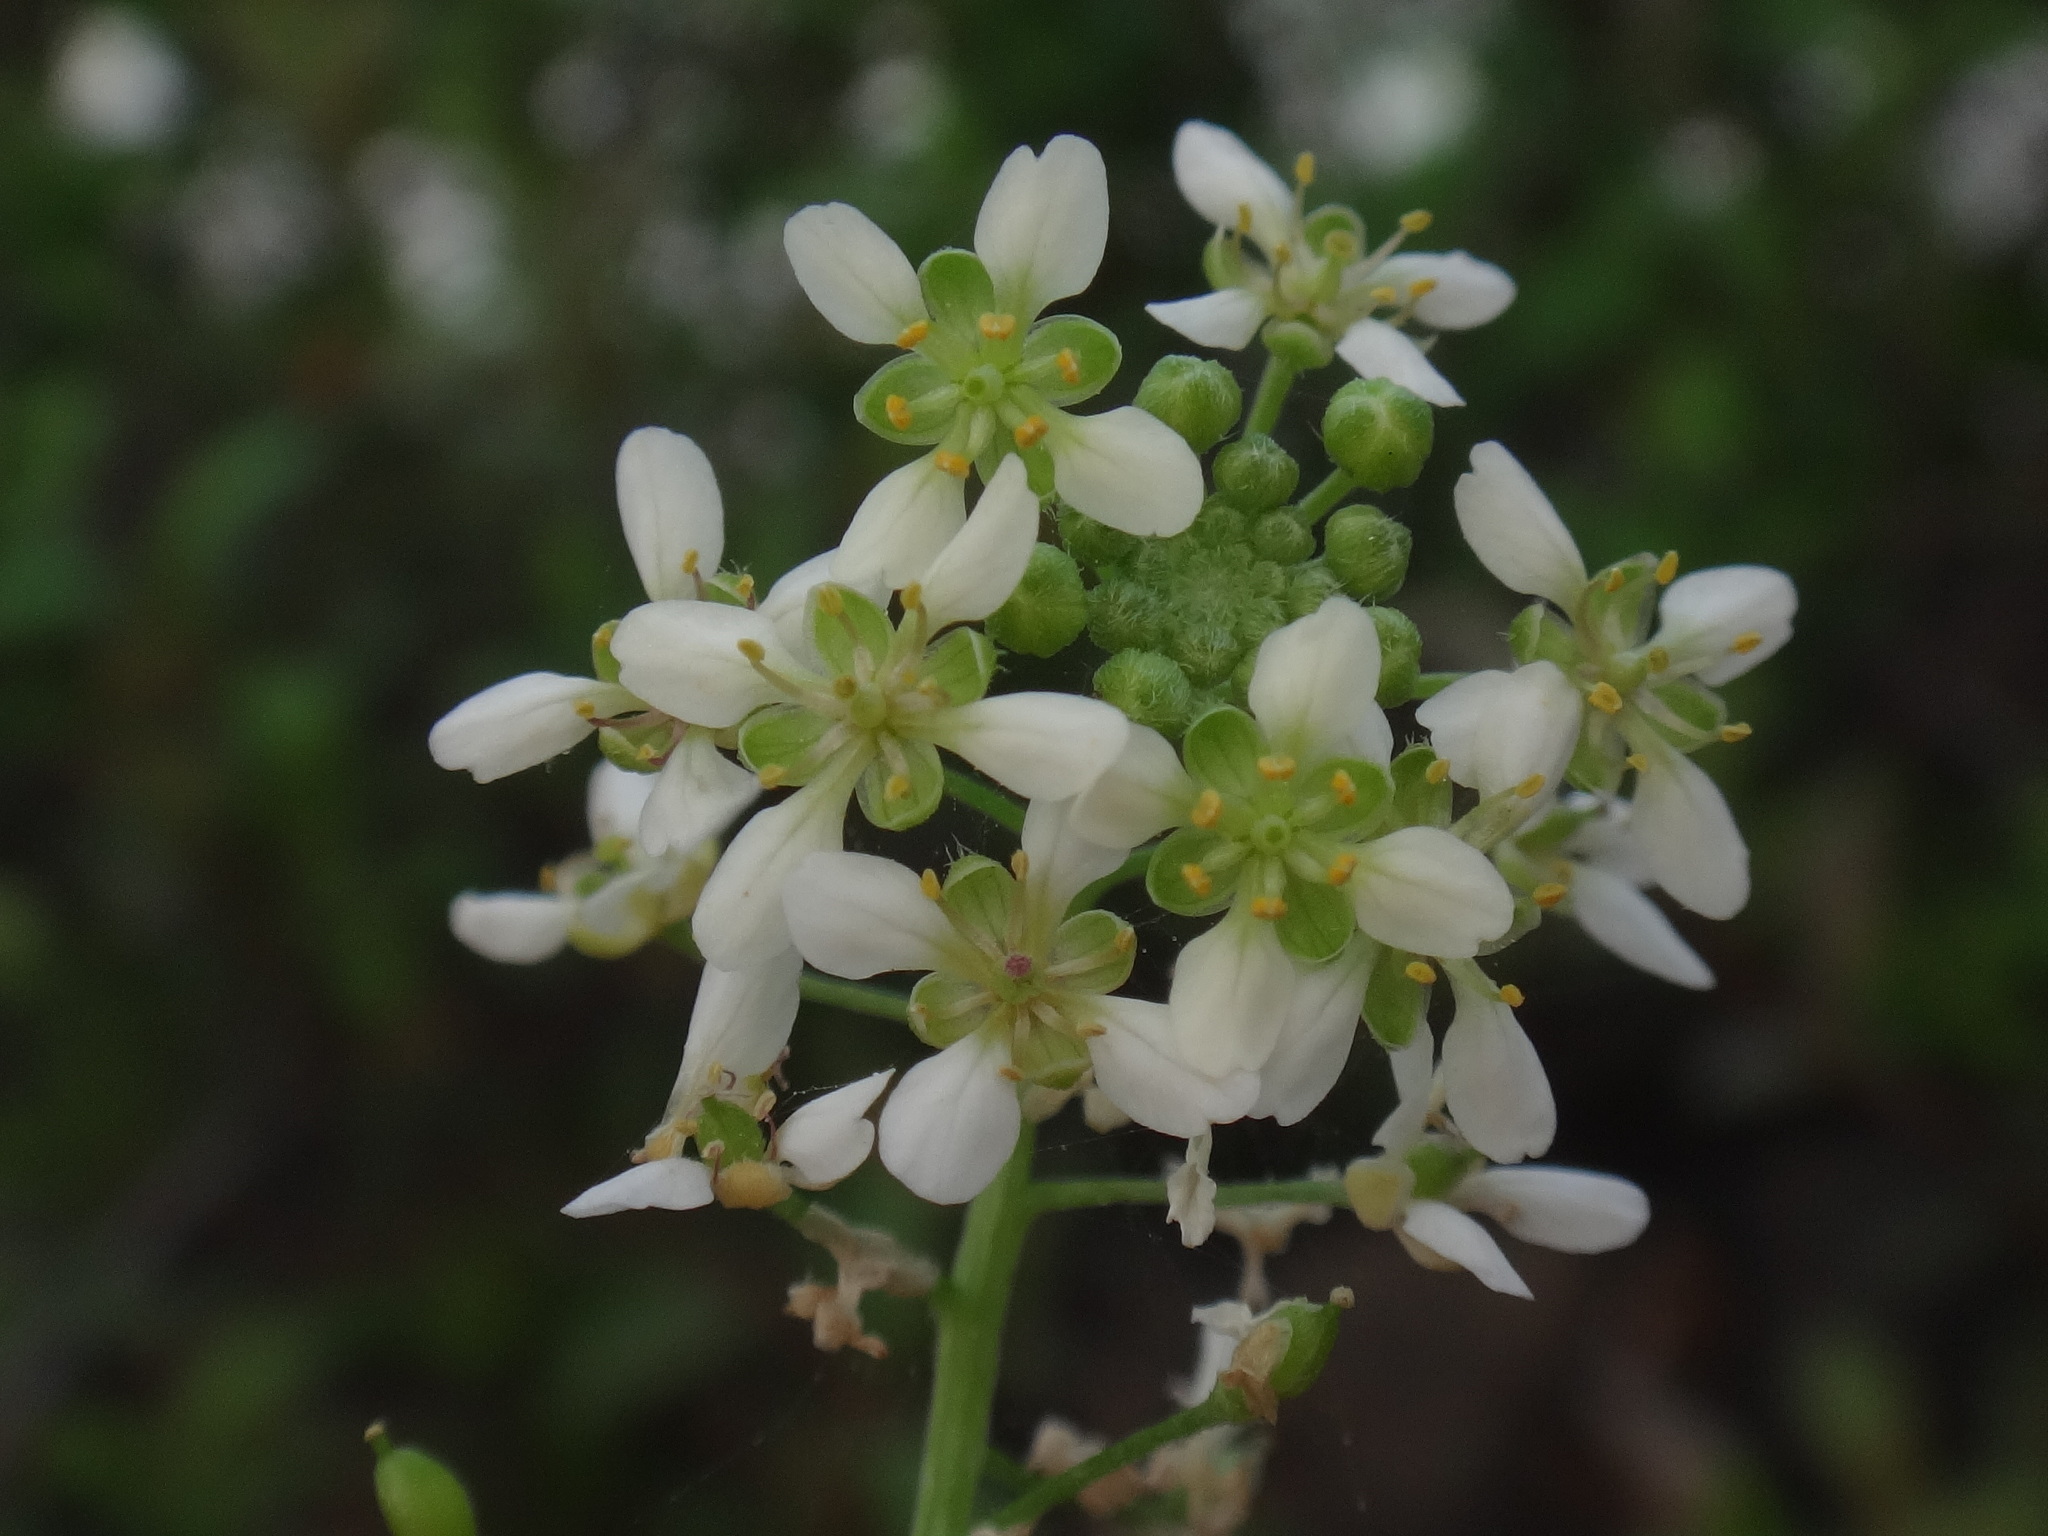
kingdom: Plantae
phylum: Tracheophyta
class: Magnoliopsida
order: Brassicales
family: Brassicaceae
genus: Lobularia
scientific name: Lobularia canariensis
